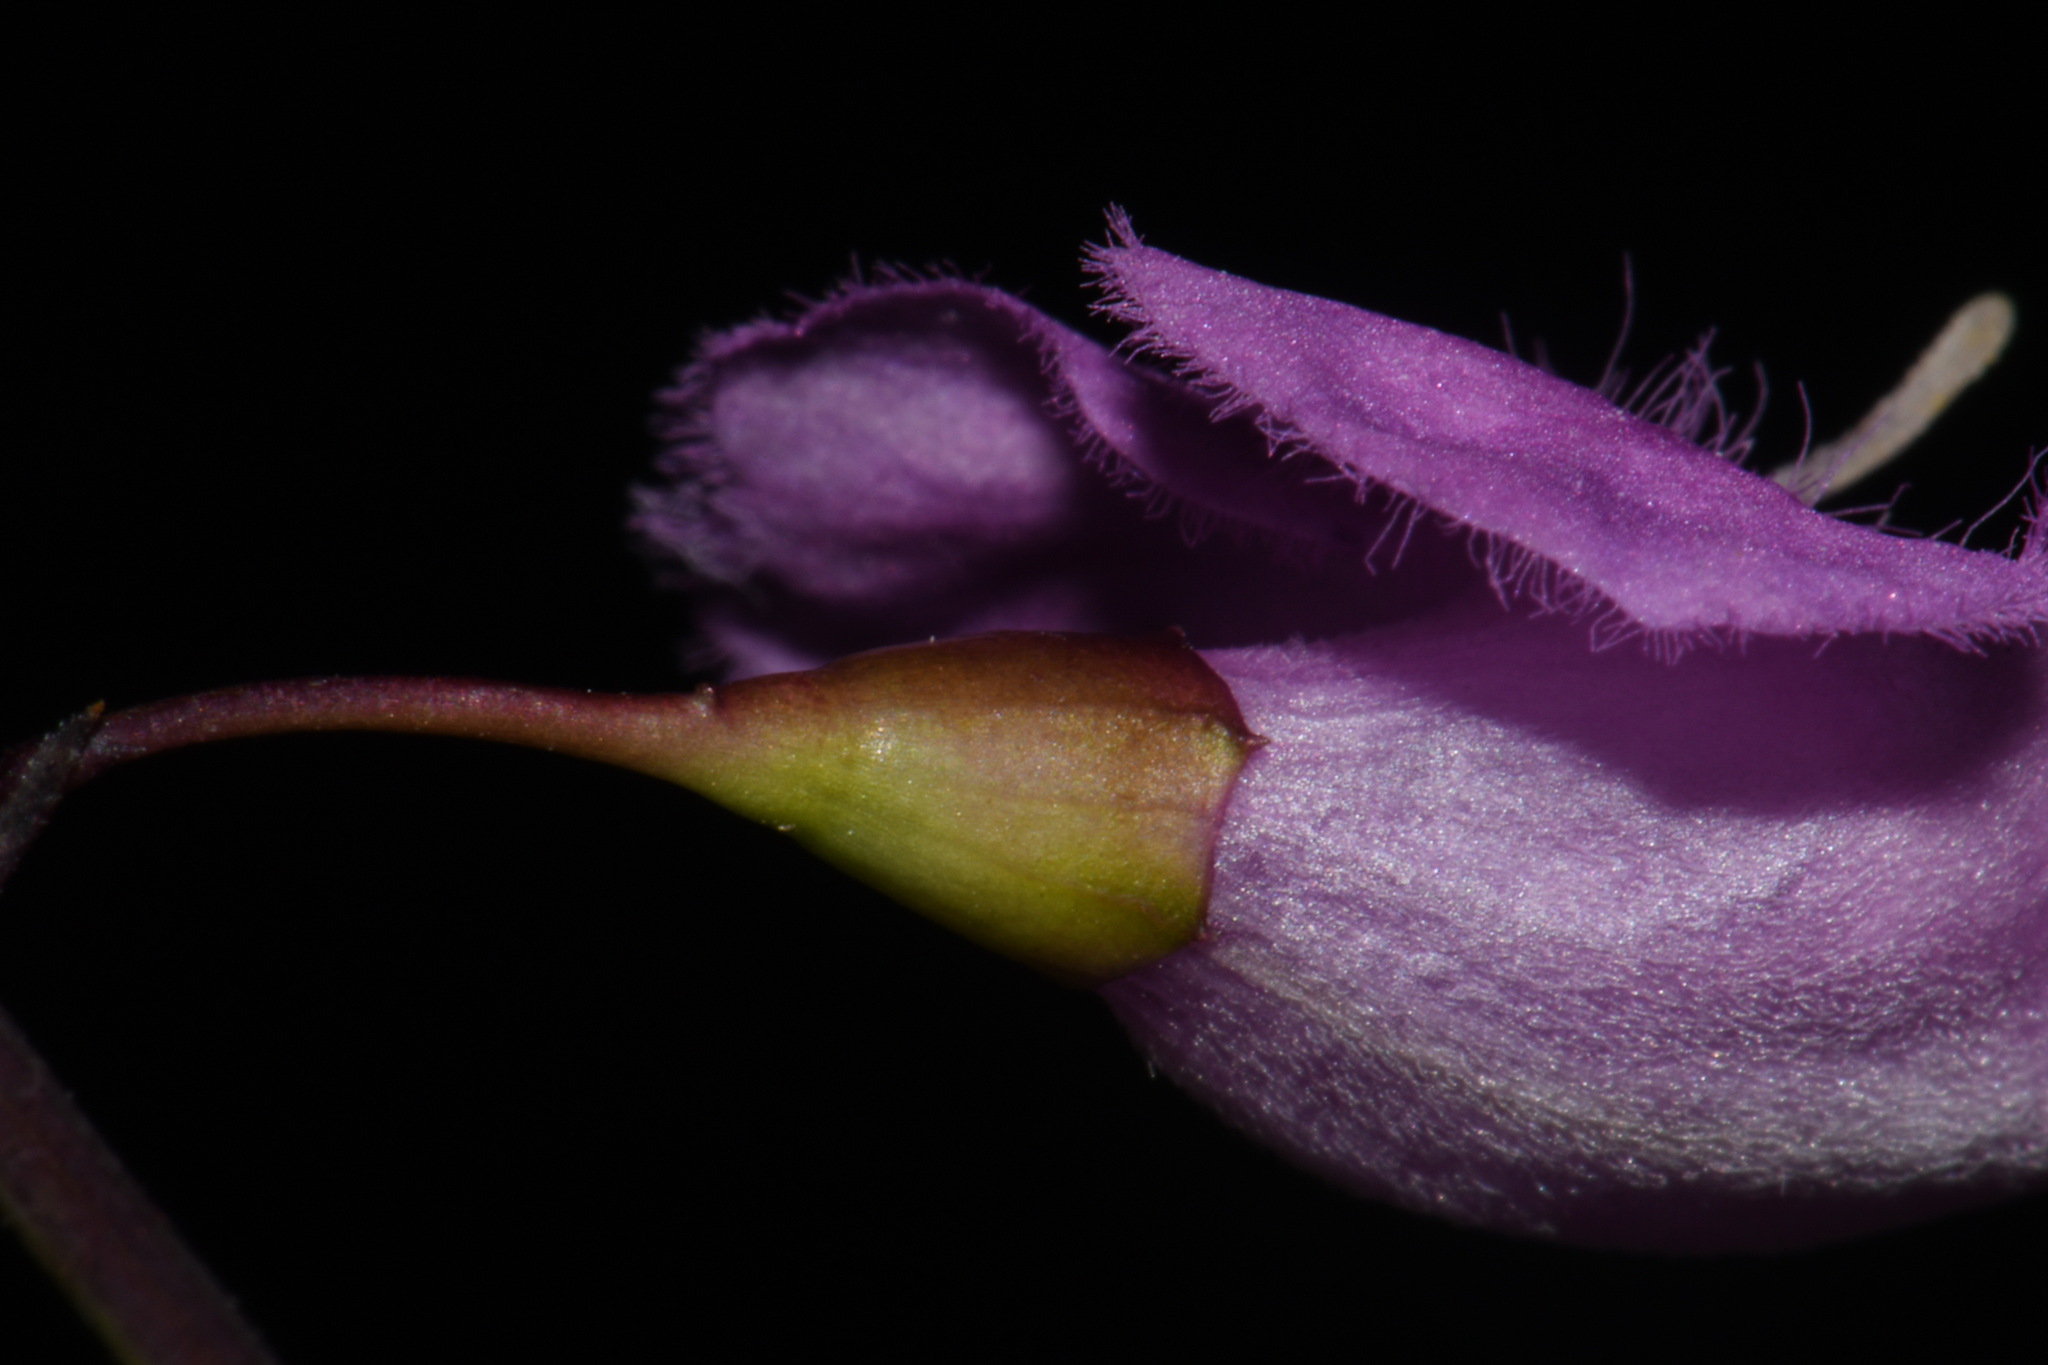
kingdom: Plantae
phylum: Tracheophyta
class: Magnoliopsida
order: Lamiales
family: Orobanchaceae
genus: Agalinis
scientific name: Agalinis oligophylla
